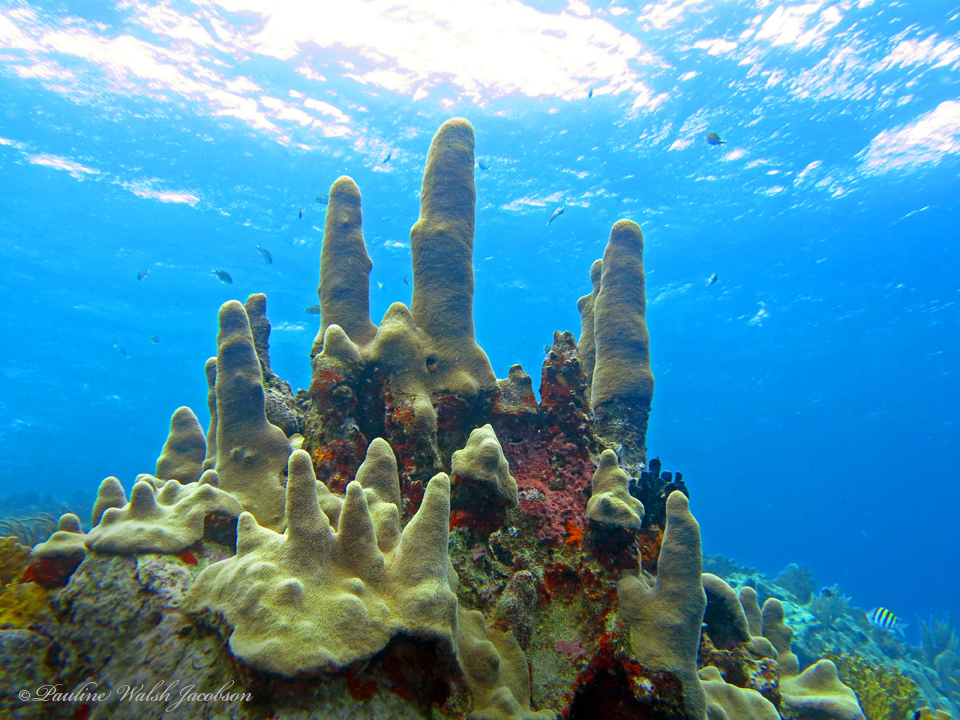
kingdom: Animalia
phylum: Cnidaria
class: Anthozoa
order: Scleractinia
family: Meandrinidae
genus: Dendrogyra
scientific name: Dendrogyra cylindrus
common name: Pillar coral
